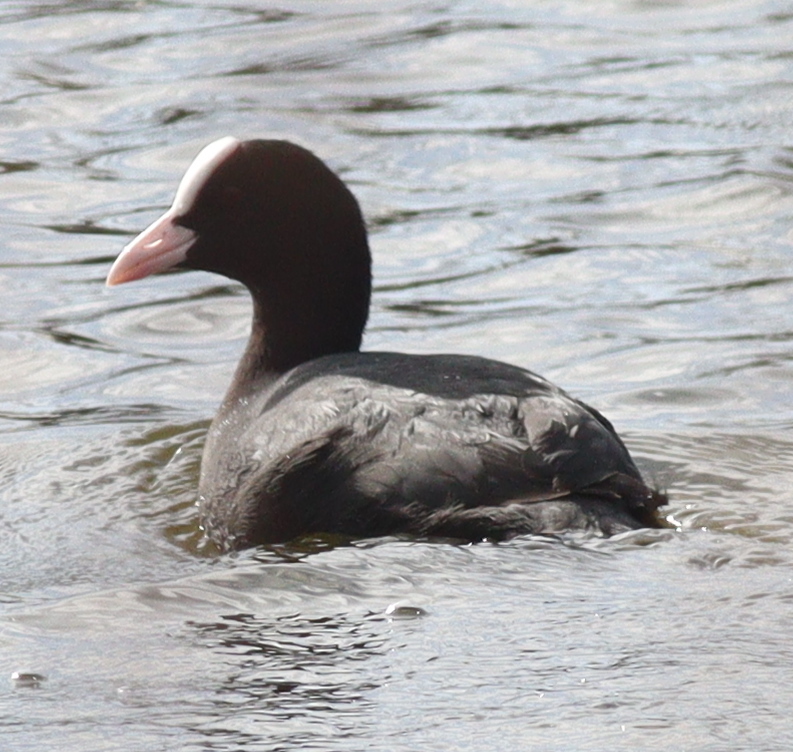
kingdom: Animalia
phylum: Chordata
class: Aves
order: Gruiformes
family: Rallidae
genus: Fulica
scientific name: Fulica atra
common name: Eurasian coot
